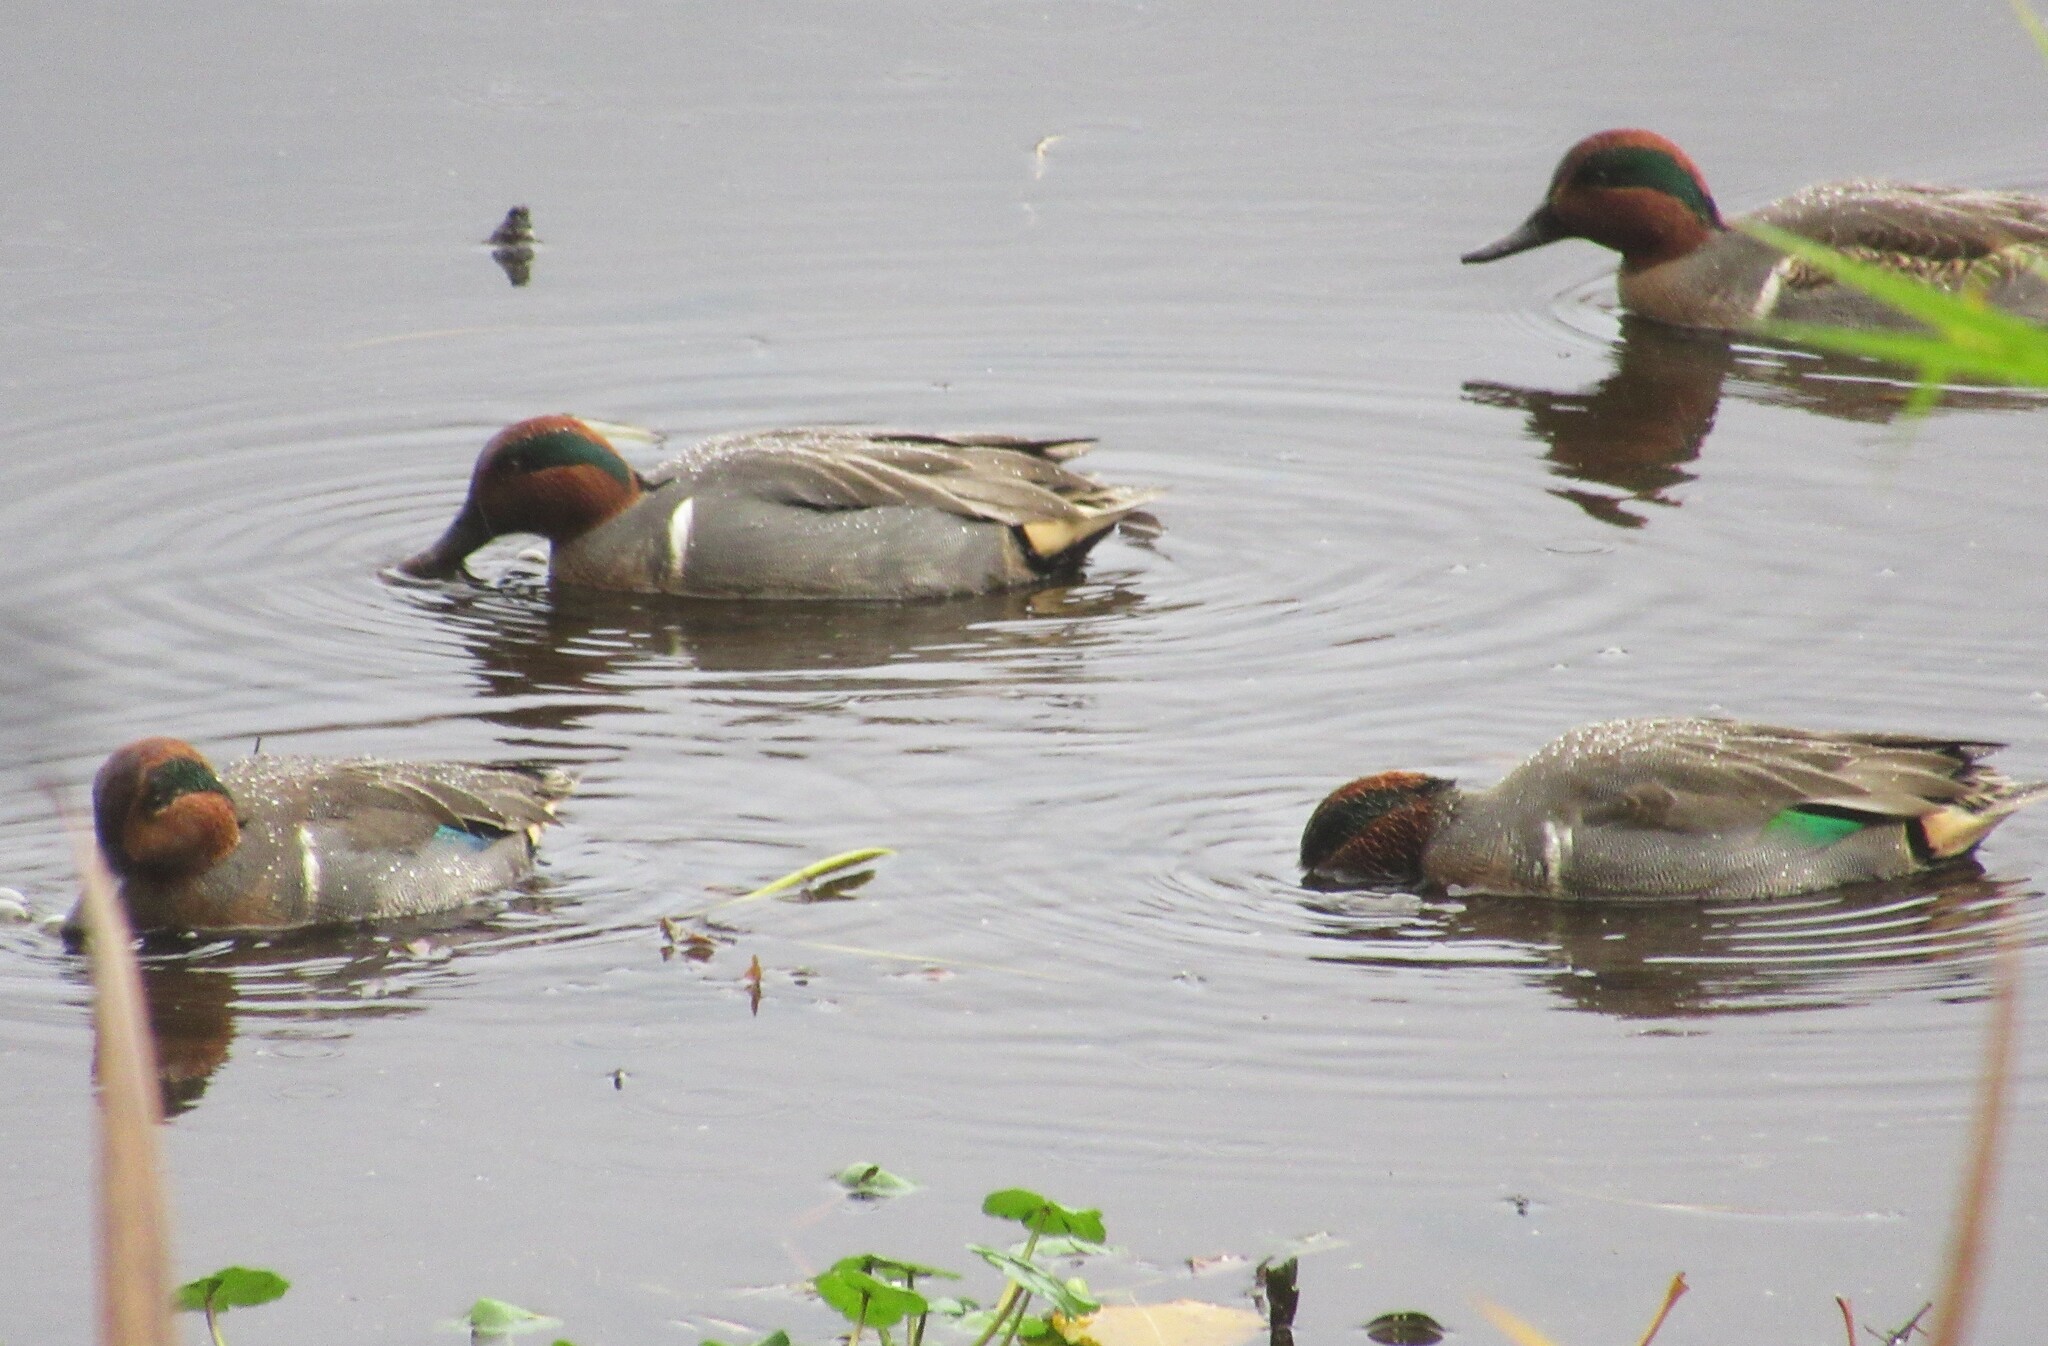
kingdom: Animalia
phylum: Chordata
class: Aves
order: Anseriformes
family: Anatidae
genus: Anas
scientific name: Anas crecca
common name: Eurasian teal
